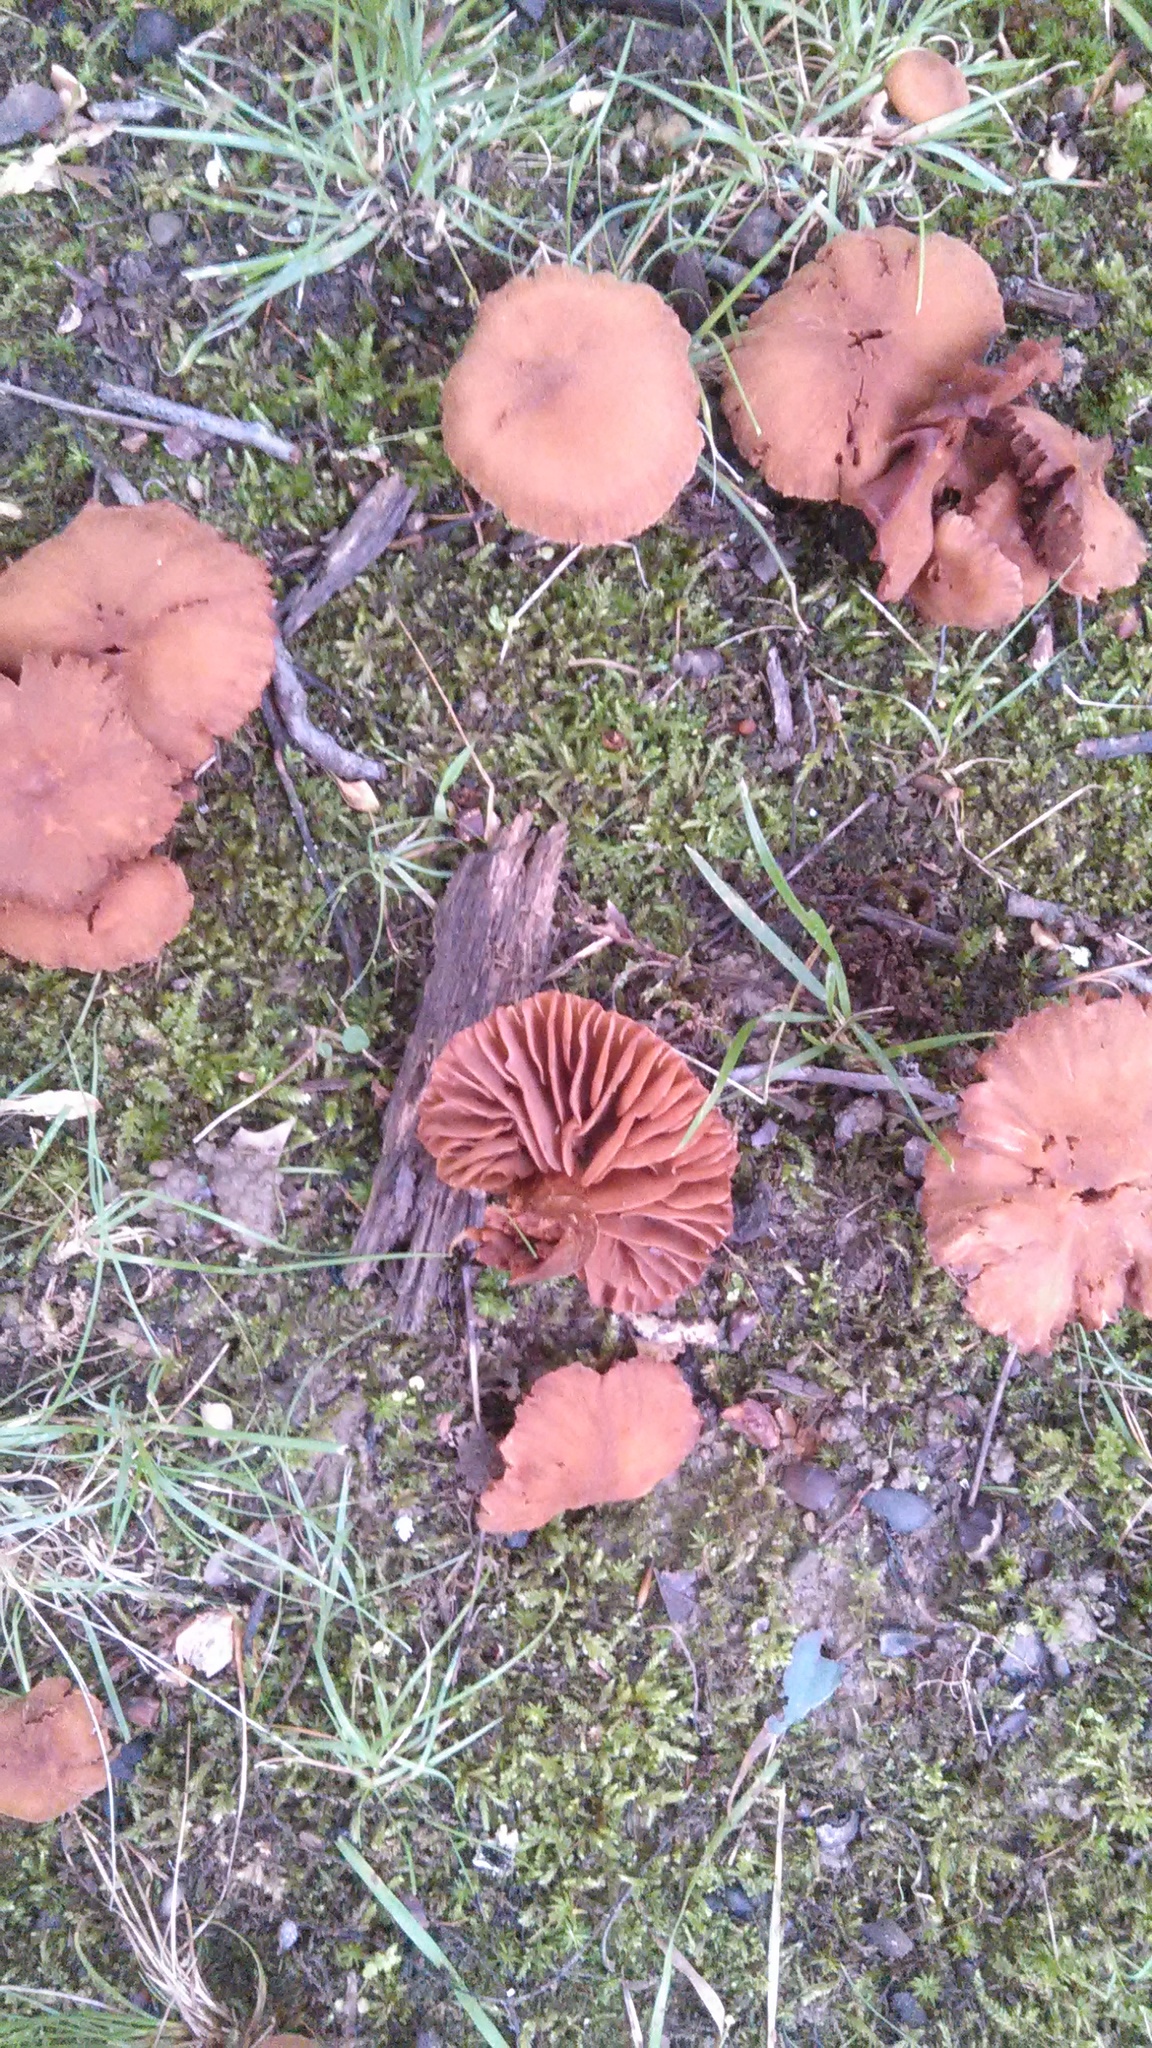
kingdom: Fungi
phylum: Basidiomycota
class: Agaricomycetes
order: Agaricales
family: Hydnangiaceae
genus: Laccaria
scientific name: Laccaria laccata
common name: Deceiver
